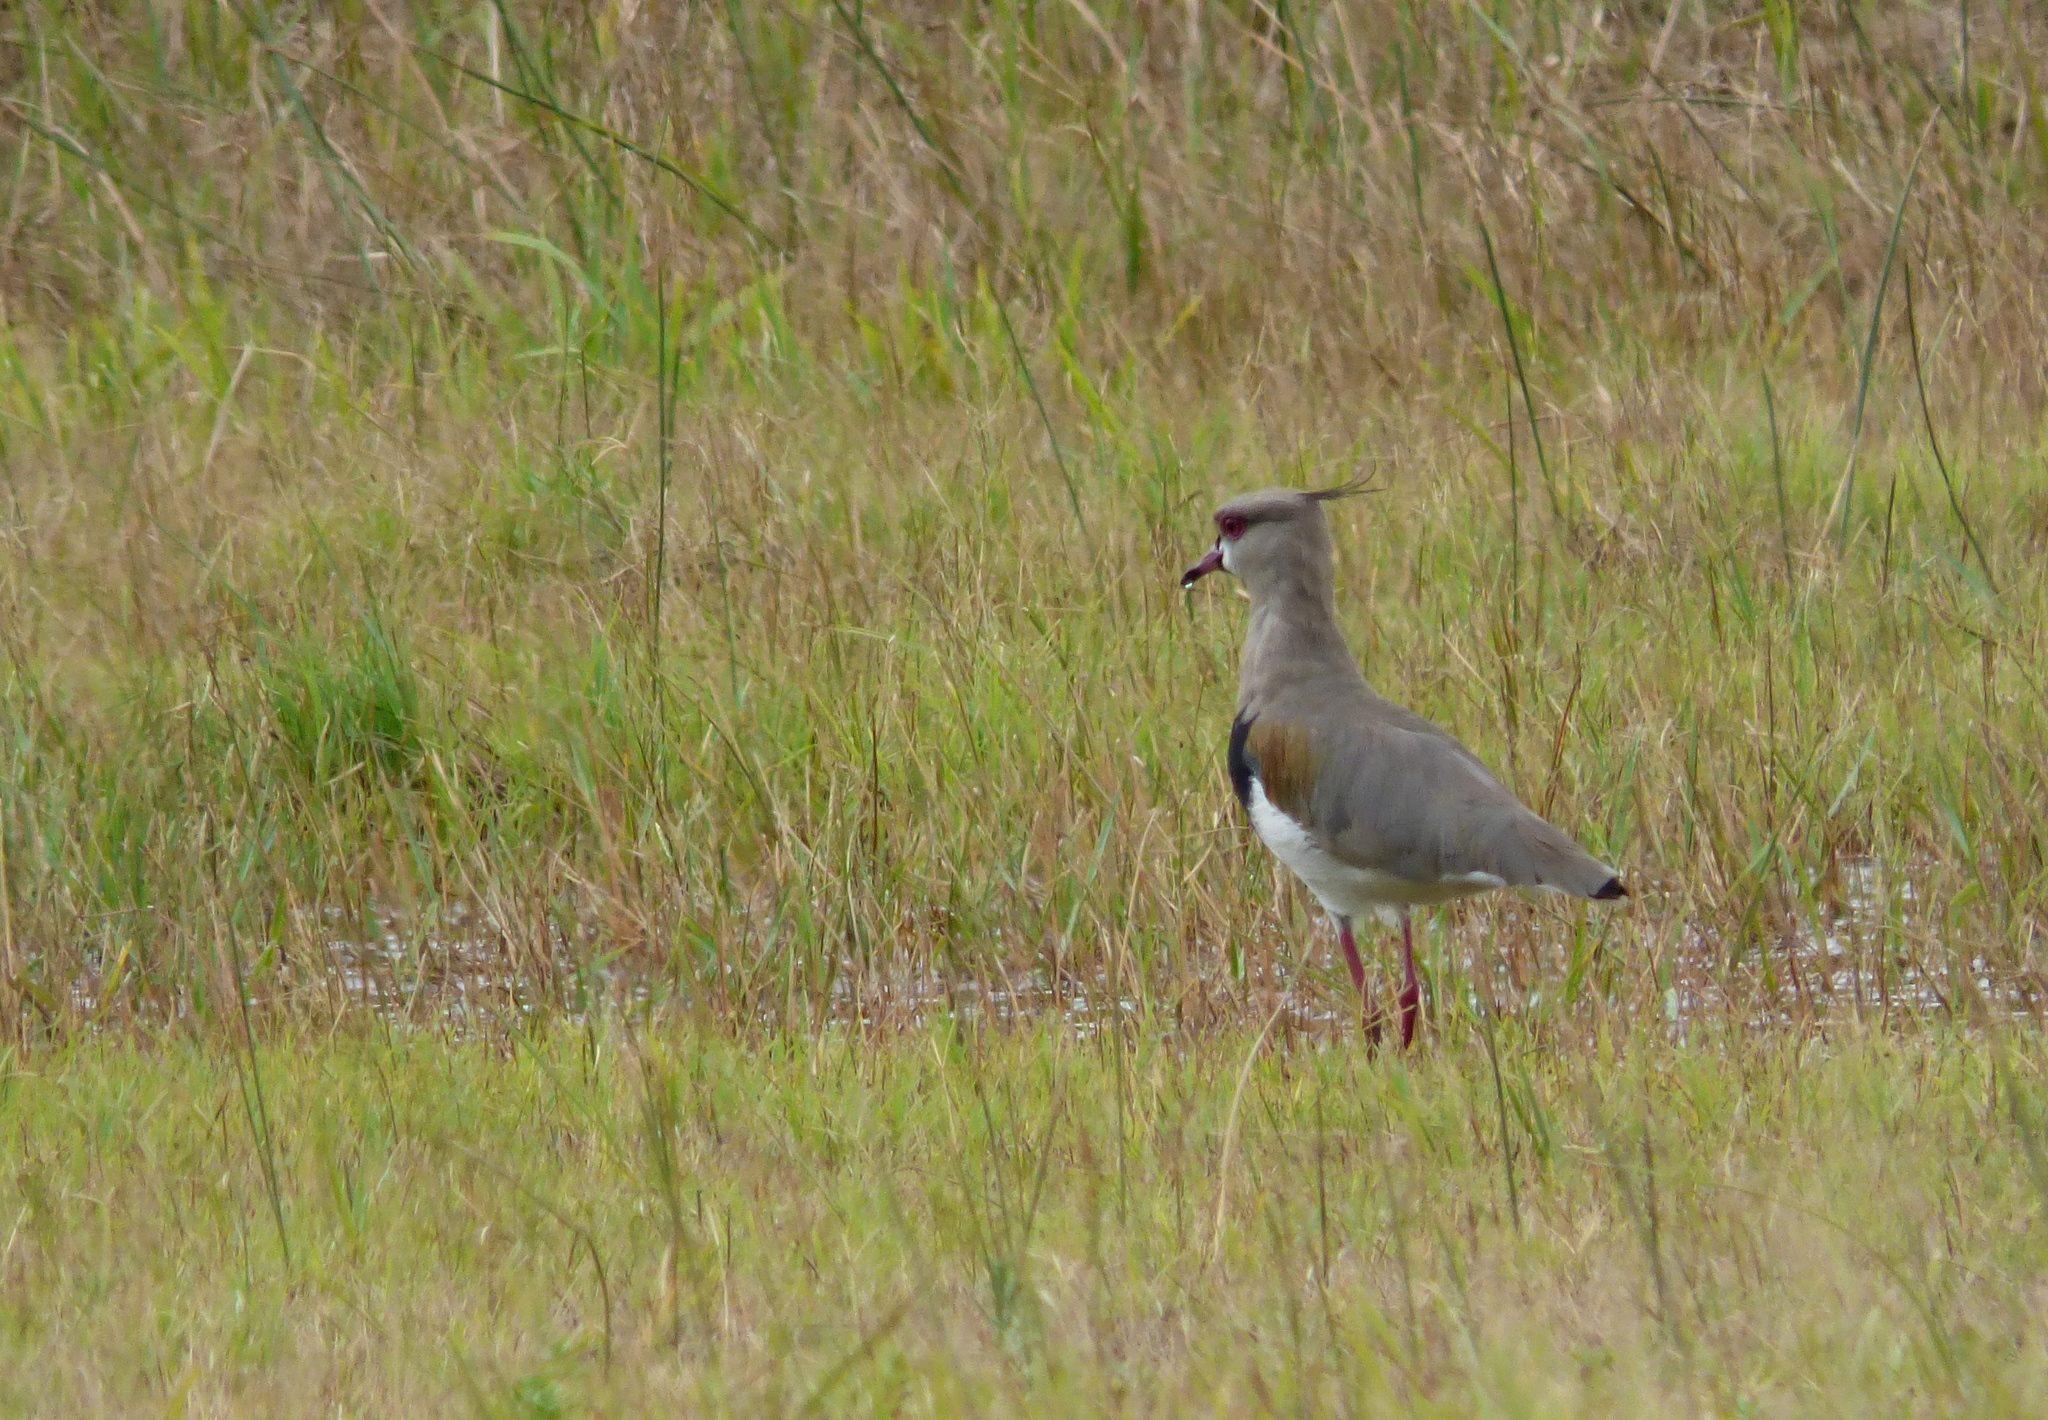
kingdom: Animalia
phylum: Chordata
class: Aves
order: Charadriiformes
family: Charadriidae
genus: Vanellus
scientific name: Vanellus chilensis
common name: Southern lapwing
